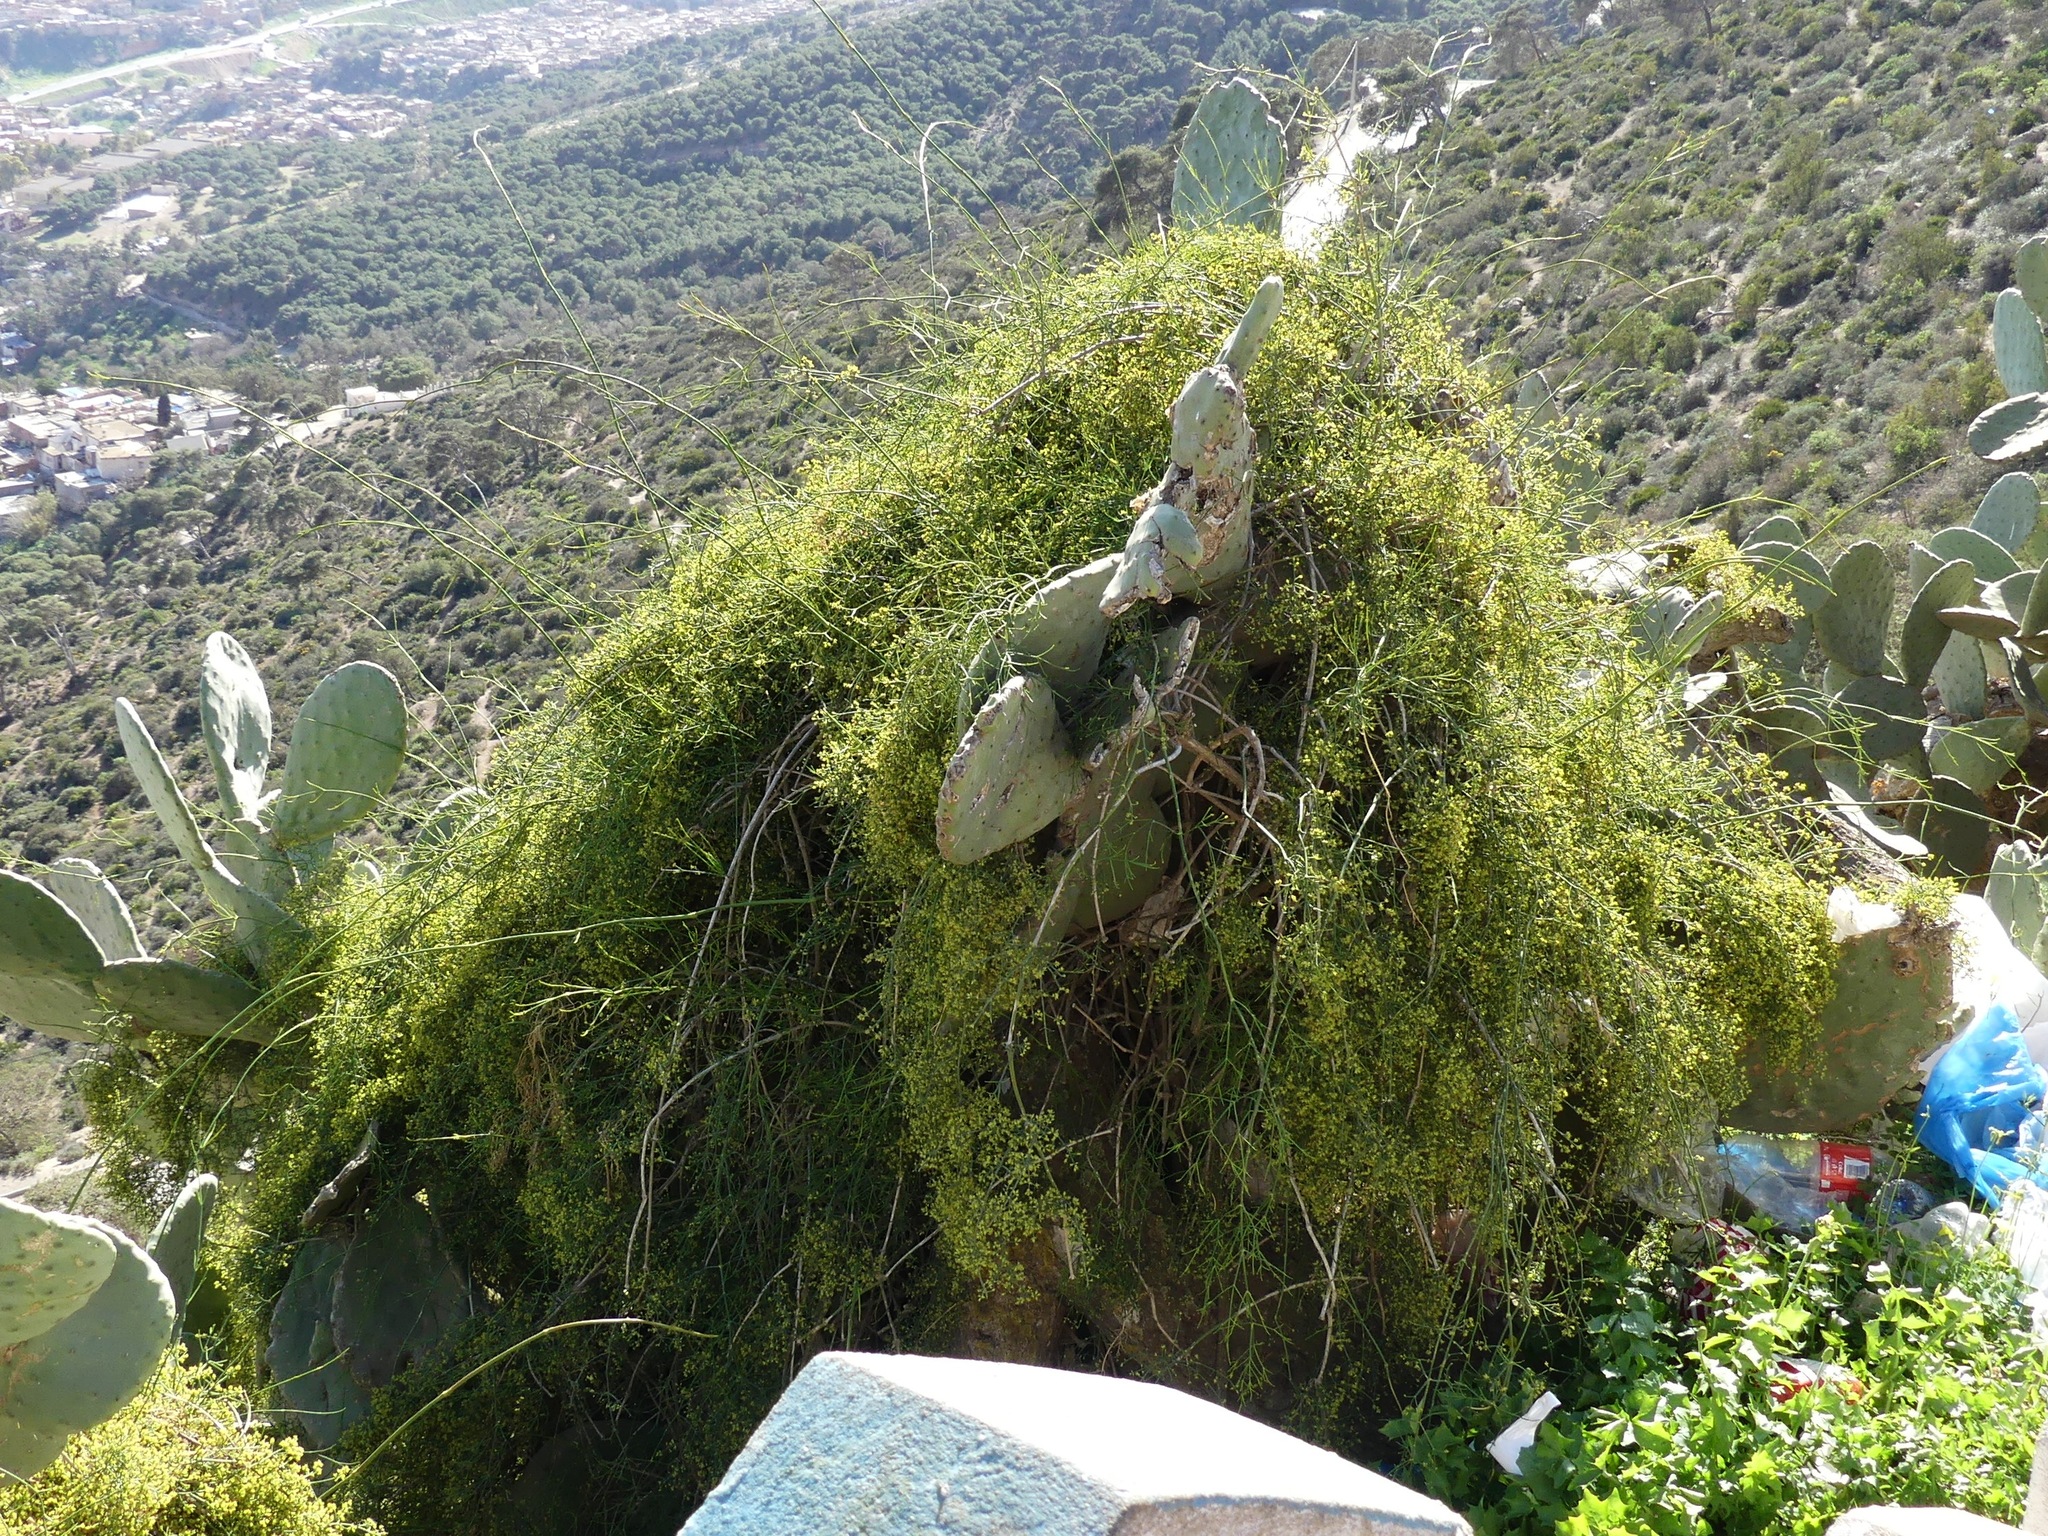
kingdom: Plantae
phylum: Tracheophyta
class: Gnetopsida
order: Ephedrales
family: Ephedraceae
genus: Ephedra
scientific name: Ephedra altissima
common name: High-climbing jointfir
